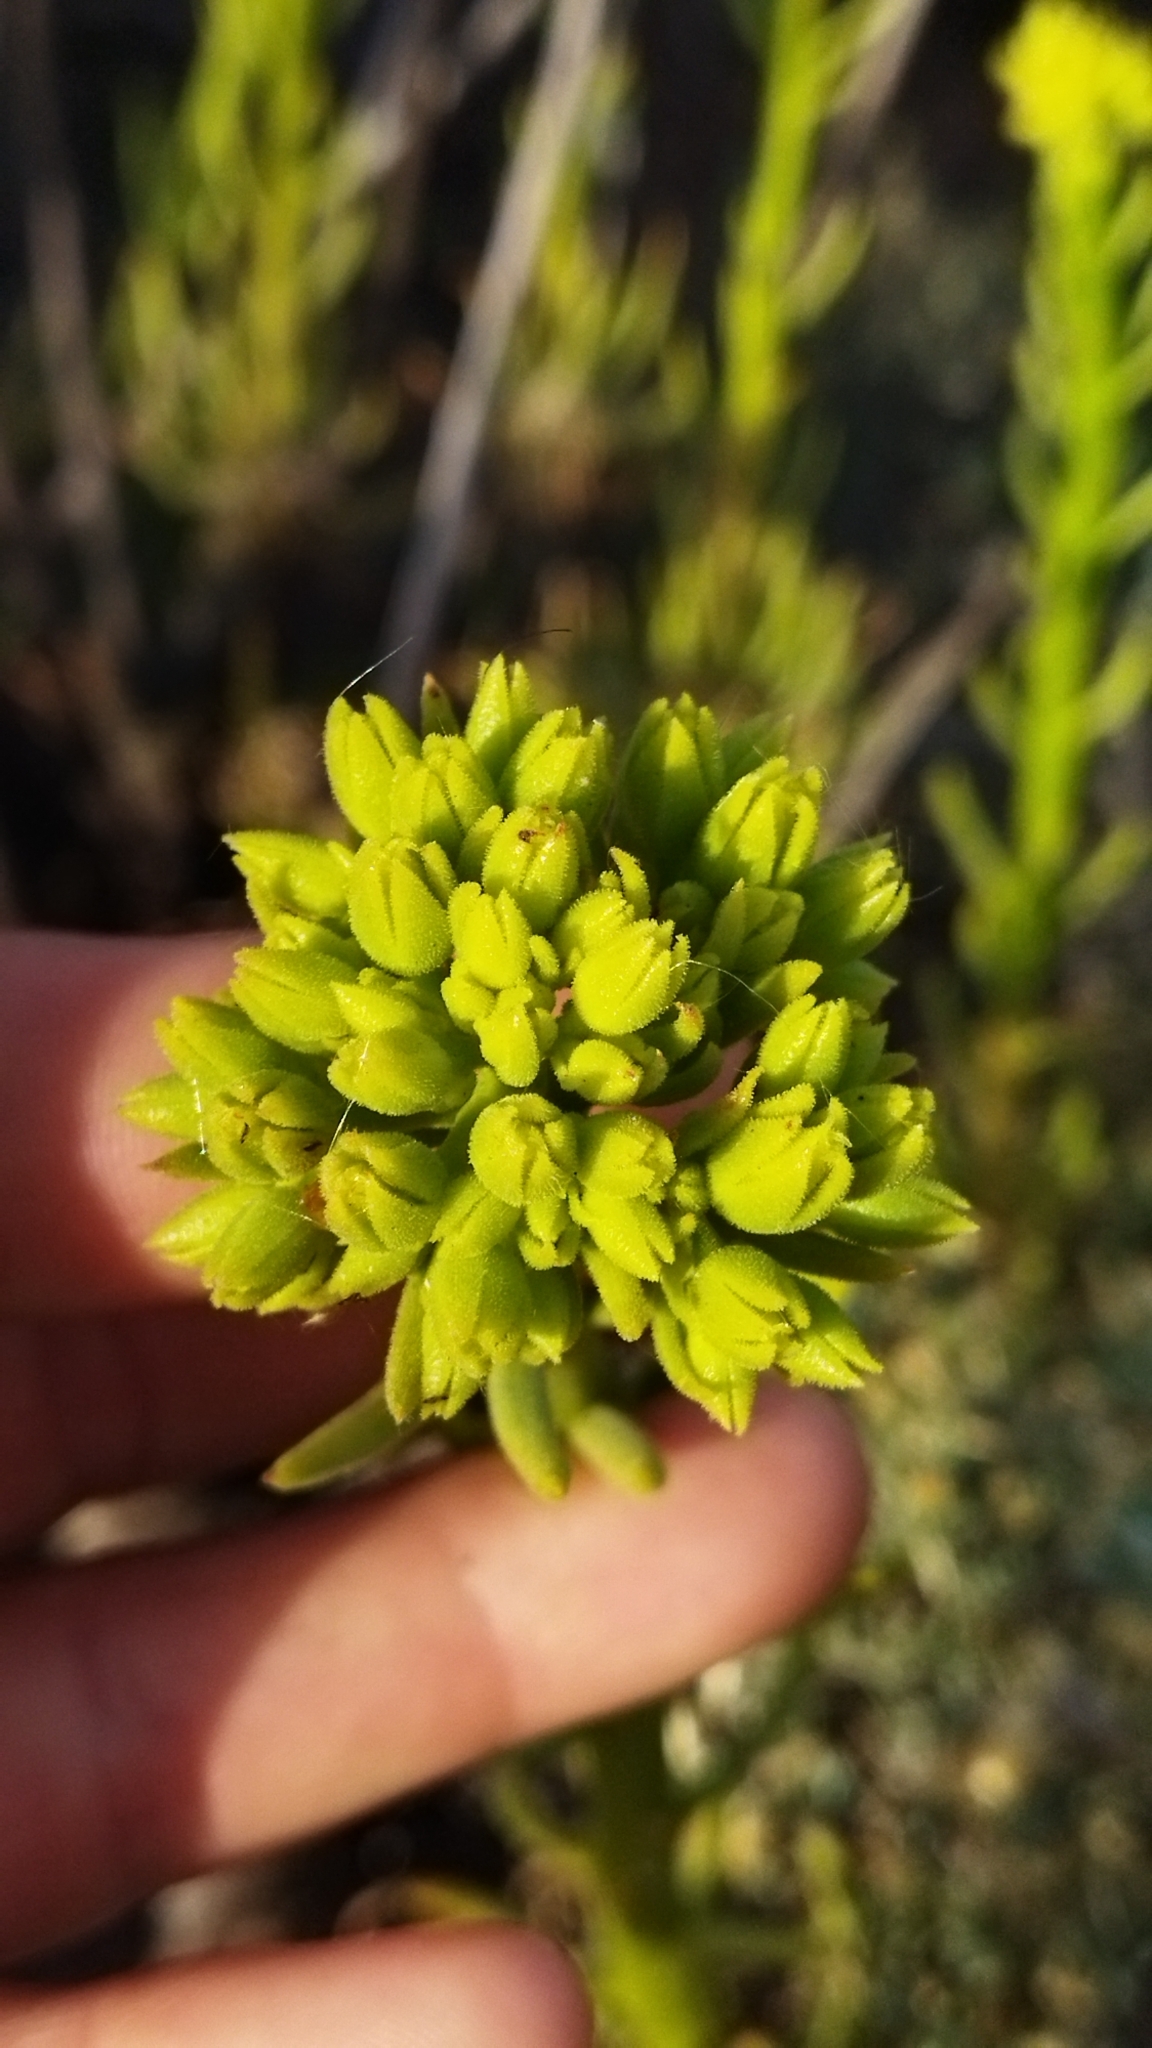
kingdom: Plantae
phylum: Tracheophyta
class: Magnoliopsida
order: Saxifragales
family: Crassulaceae
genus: Tylecodon
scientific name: Tylecodon cacaliodes
